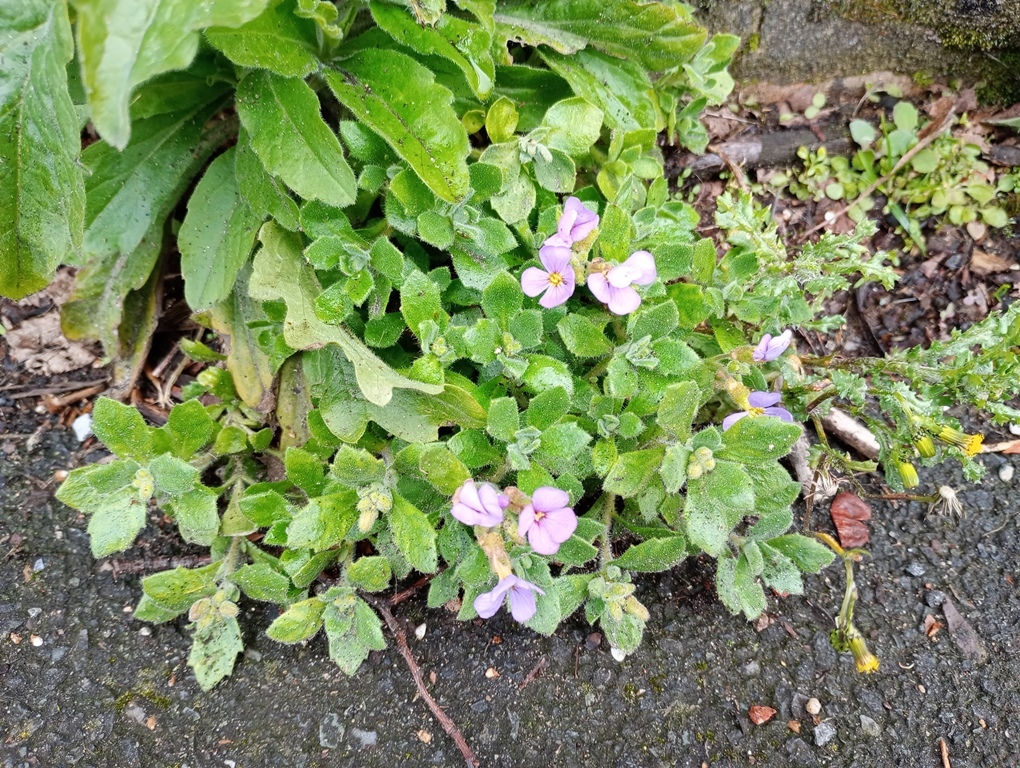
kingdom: Plantae
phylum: Tracheophyta
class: Magnoliopsida
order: Brassicales
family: Brassicaceae
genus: Aubrieta
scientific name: Aubrieta deltoidea
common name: Aubretia
